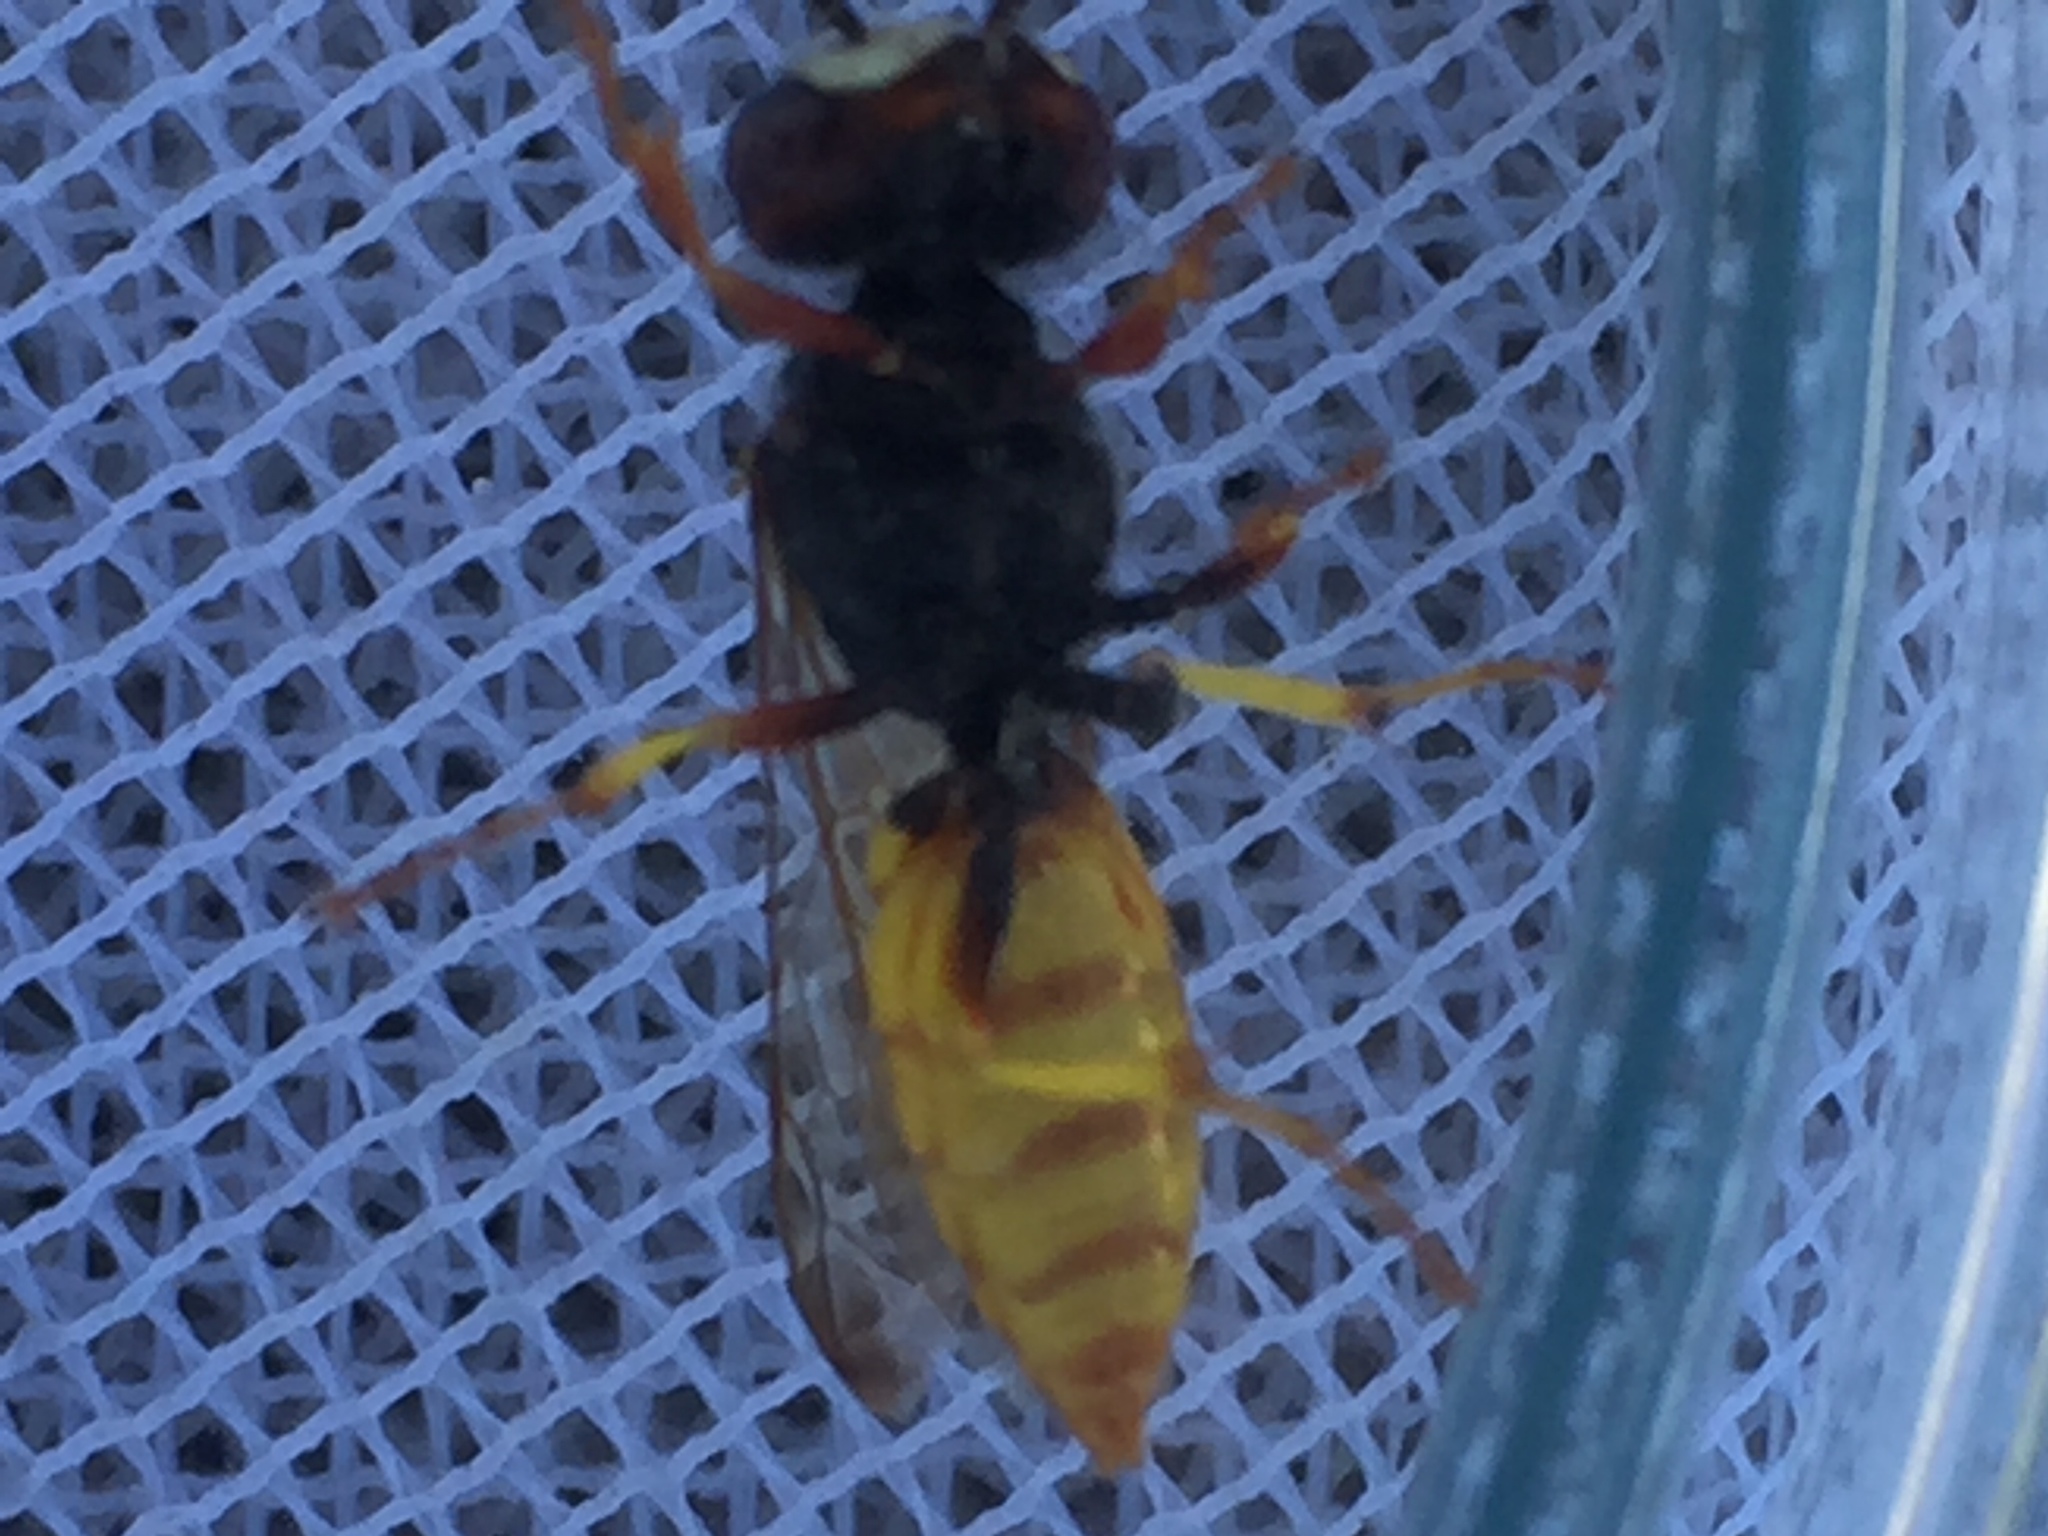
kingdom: Animalia
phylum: Arthropoda
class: Insecta
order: Hymenoptera
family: Crabronidae
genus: Philanthus
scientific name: Philanthus triangulum
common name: Bee wolf
